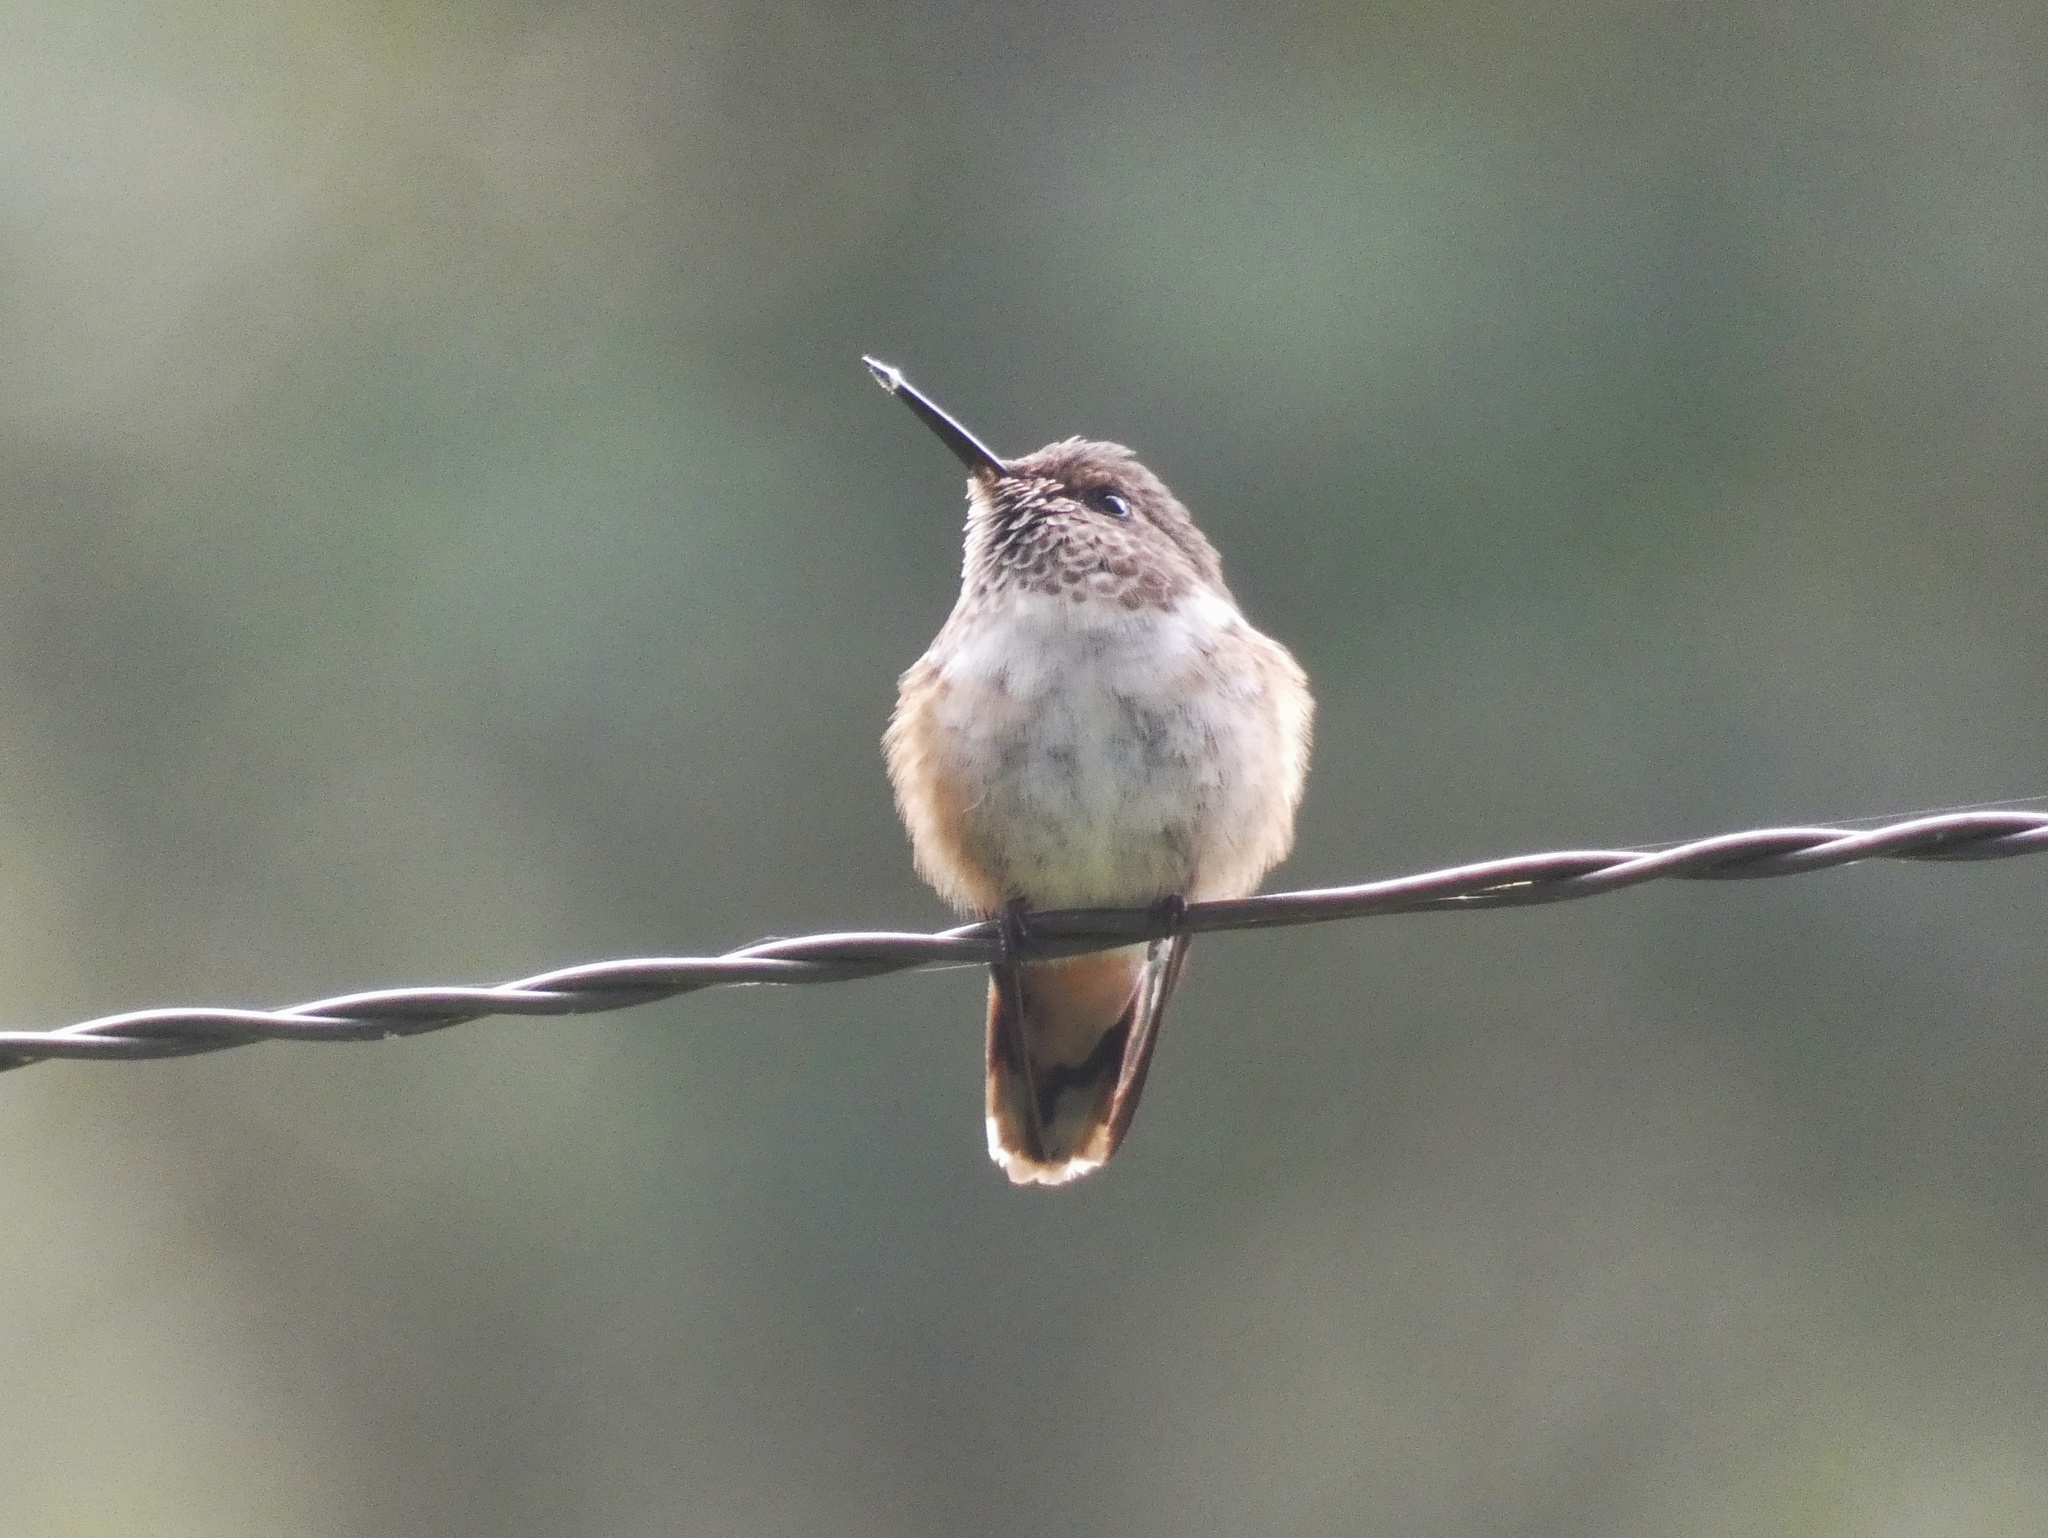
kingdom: Animalia
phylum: Chordata
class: Aves
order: Apodiformes
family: Trochilidae
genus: Selasphorus
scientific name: Selasphorus scintilla
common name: Scintillant hummingbird
